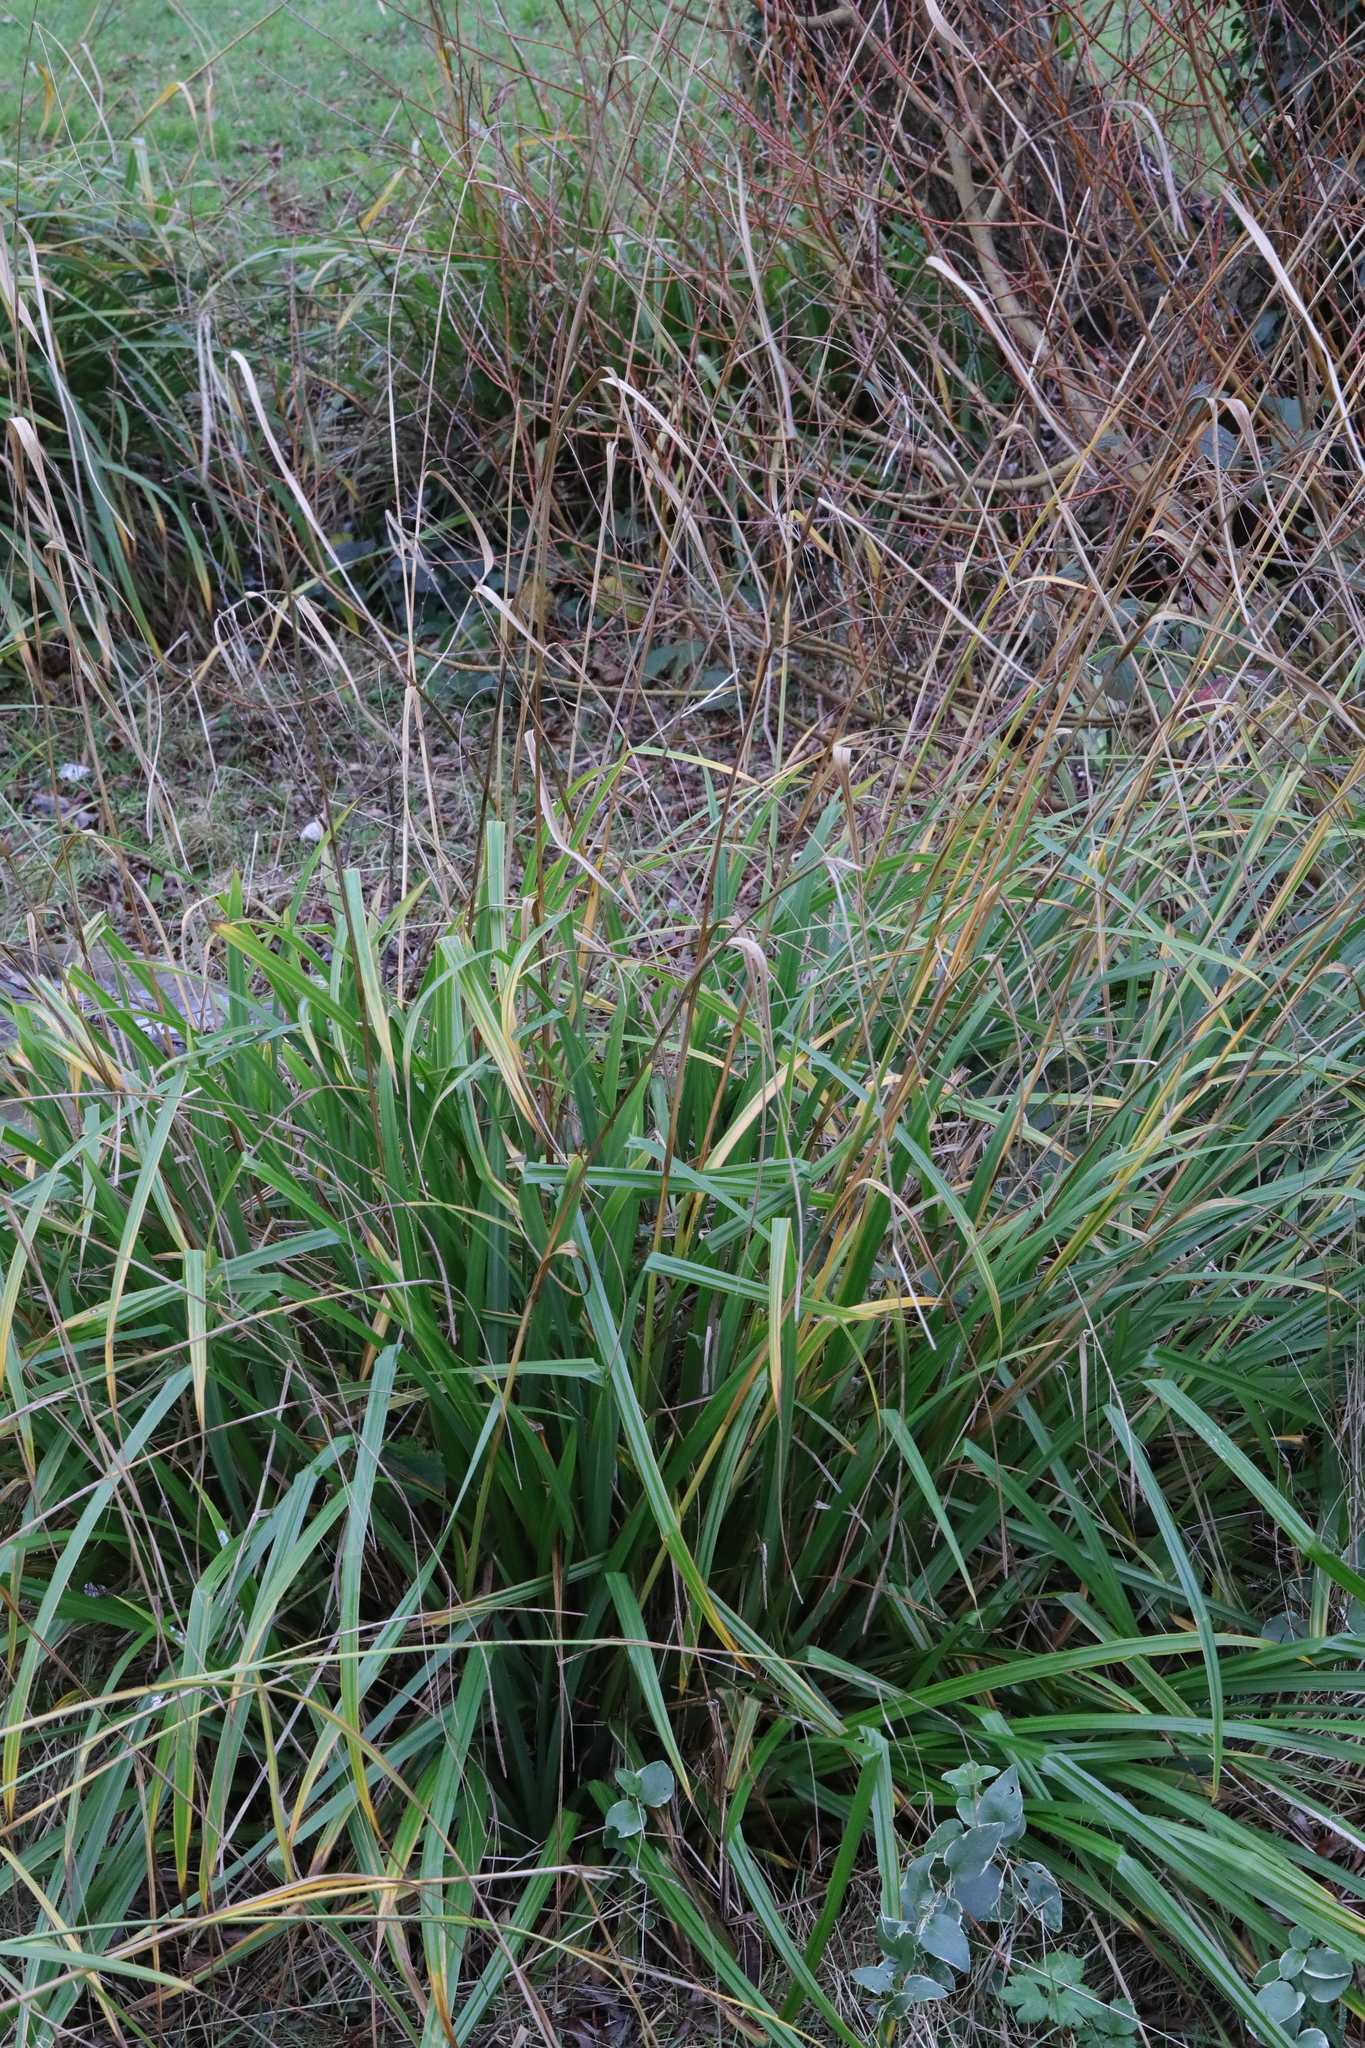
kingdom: Plantae
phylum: Tracheophyta
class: Liliopsida
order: Poales
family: Cyperaceae
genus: Carex
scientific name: Carex pendula
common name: Pendulous sedge
